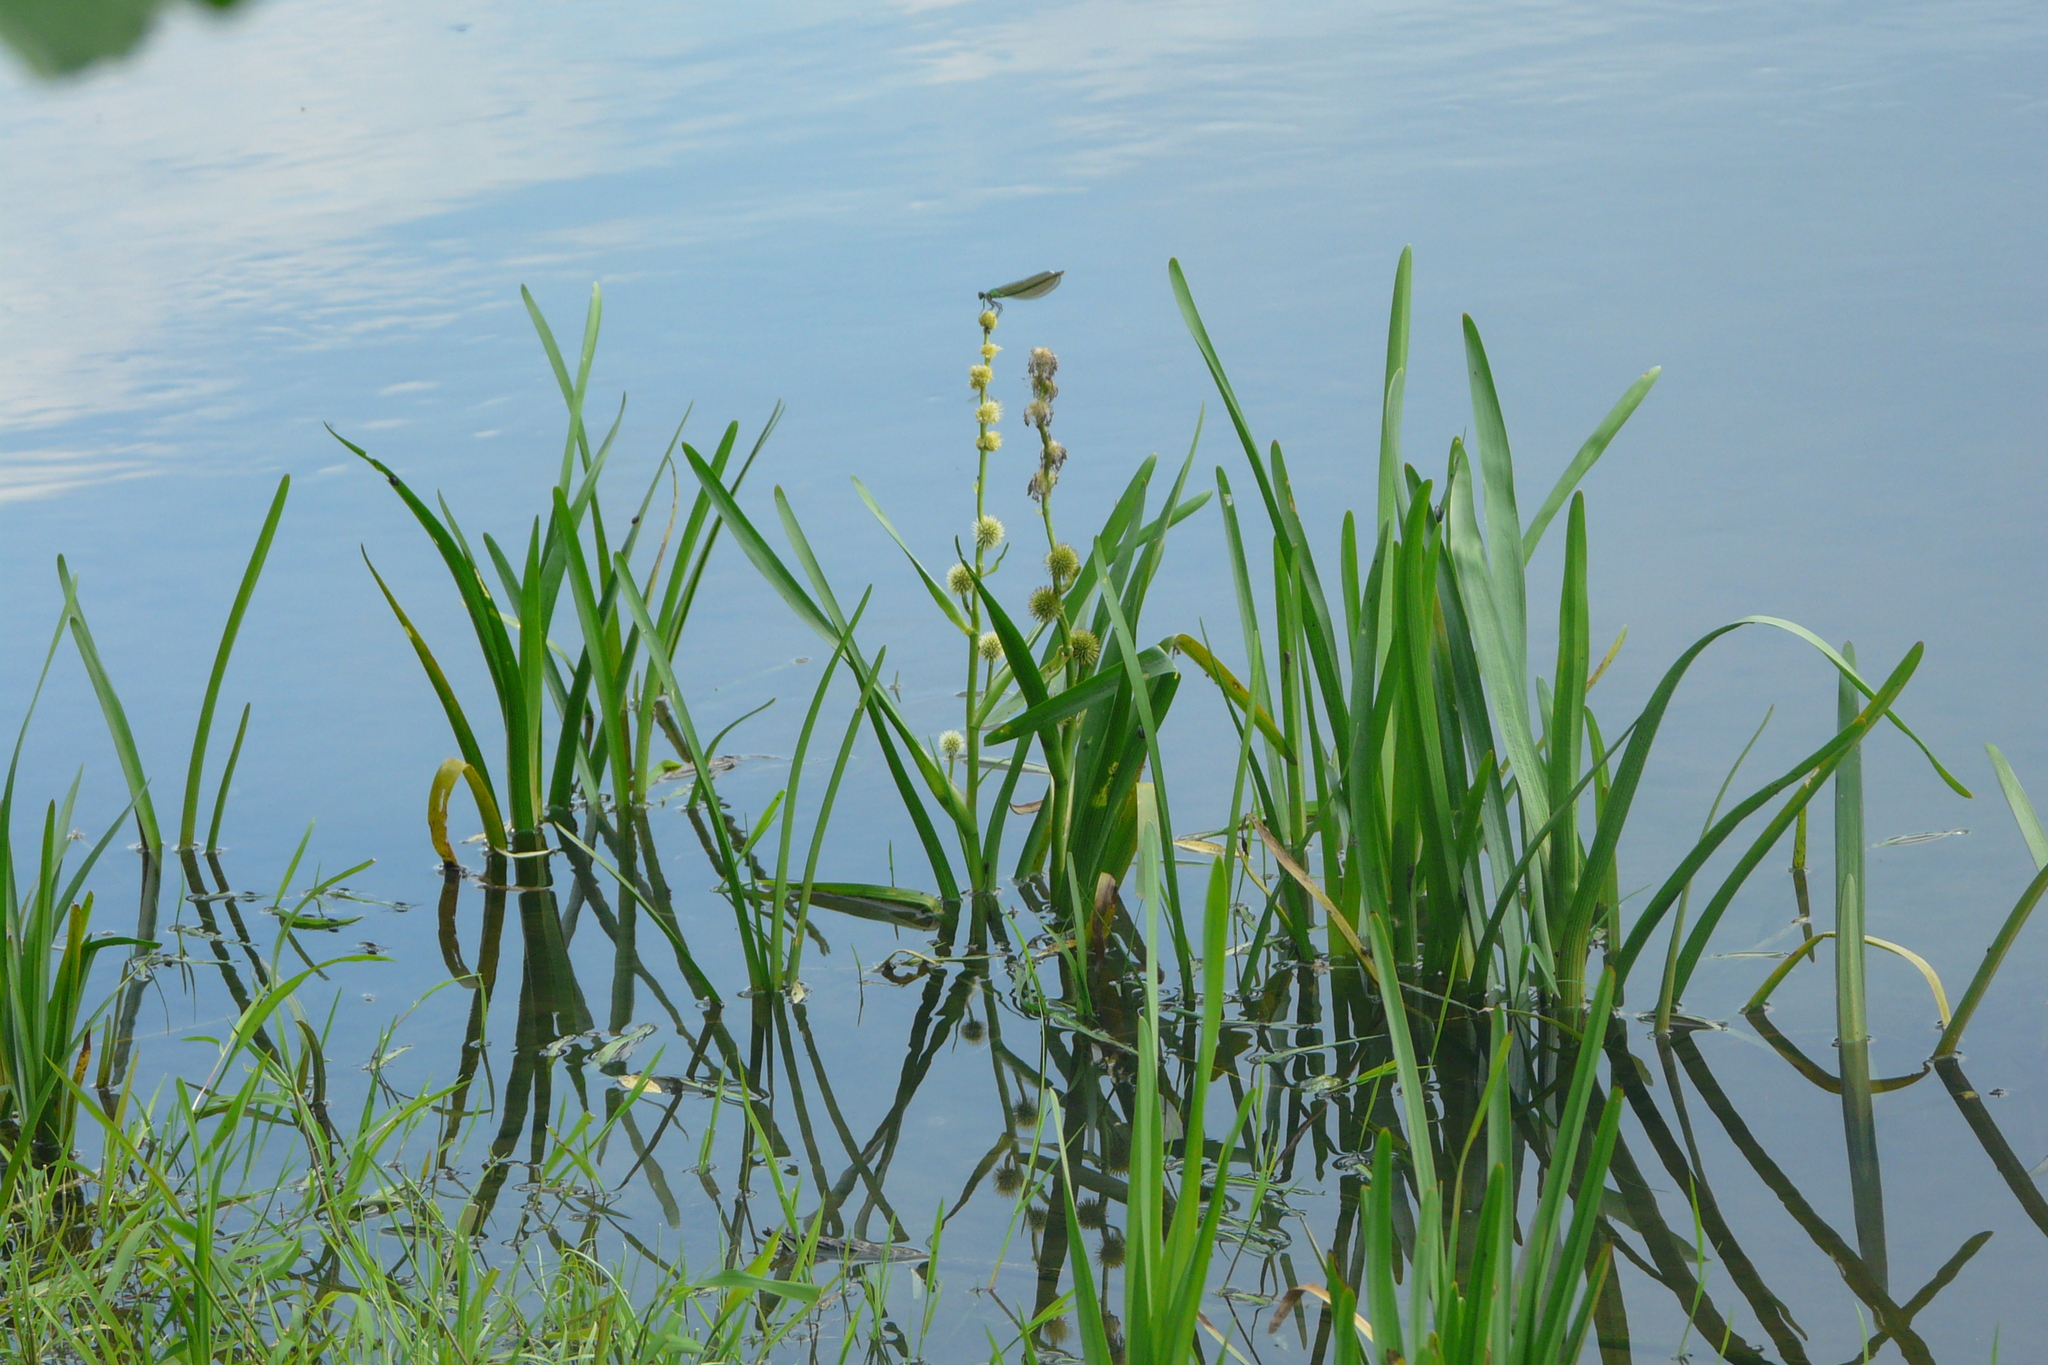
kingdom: Plantae
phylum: Tracheophyta
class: Liliopsida
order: Poales
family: Typhaceae
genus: Sparganium
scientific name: Sparganium emersum
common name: Unbranched bur-reed
